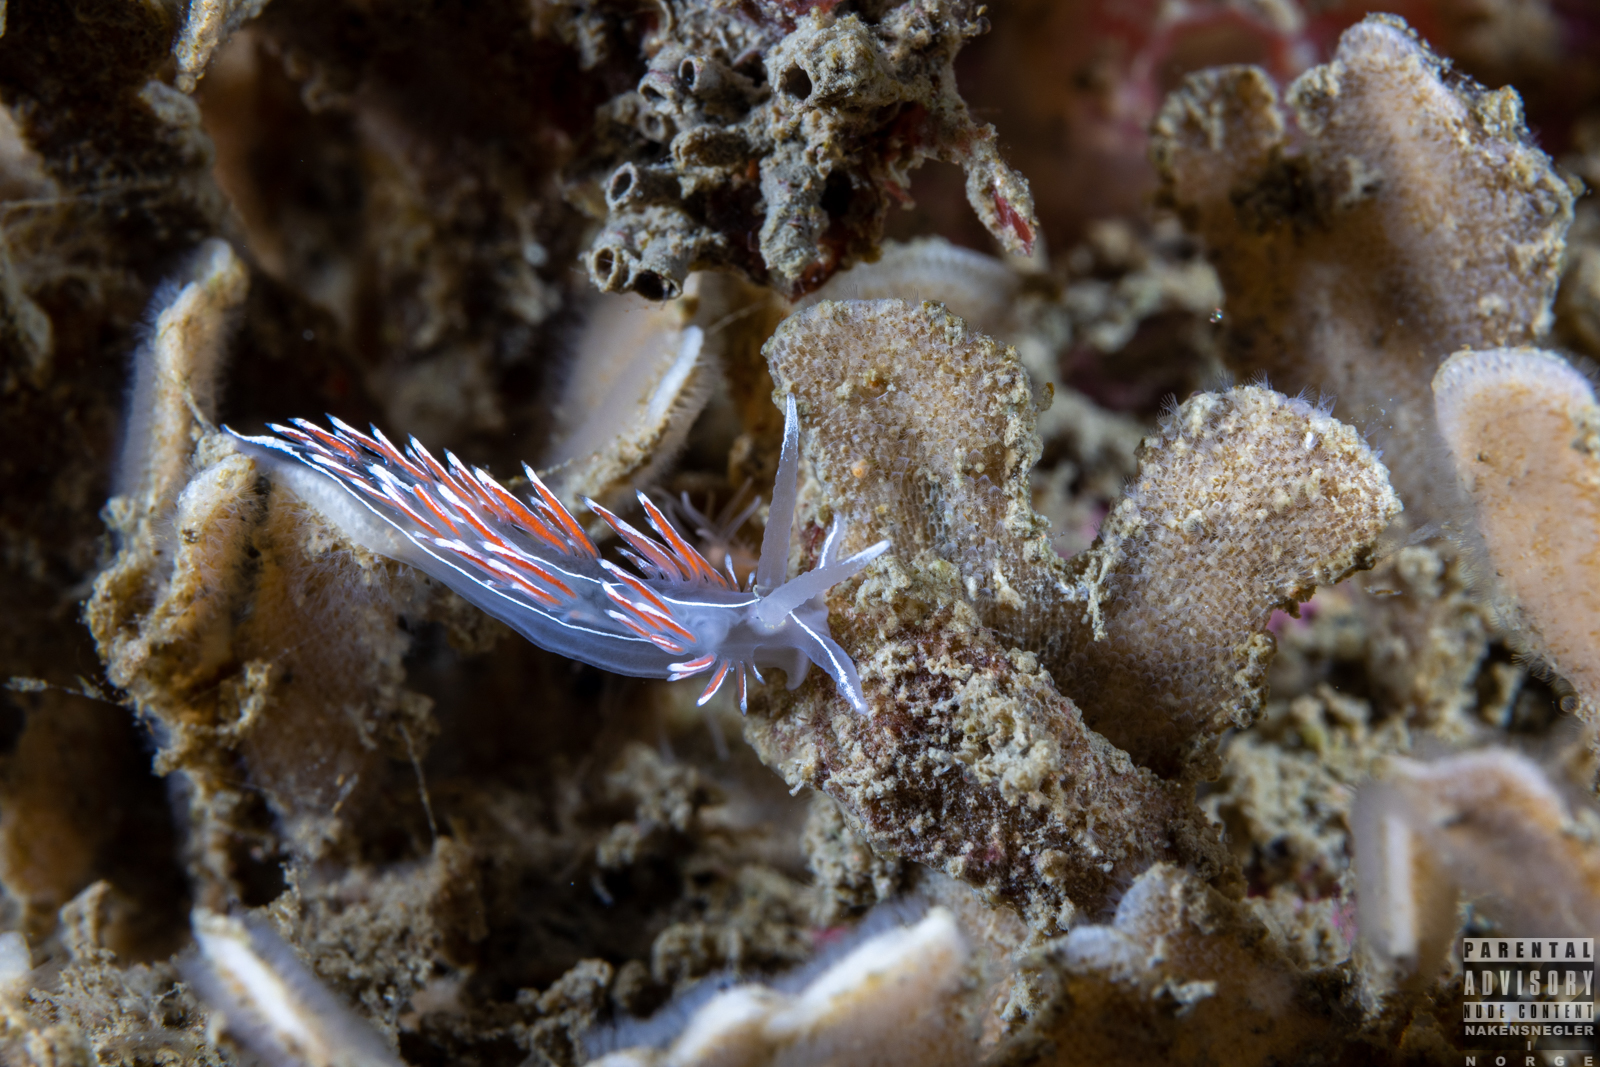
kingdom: Animalia
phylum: Mollusca
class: Gastropoda
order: Nudibranchia
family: Coryphellidae
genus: Coryphella
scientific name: Coryphella lineata
